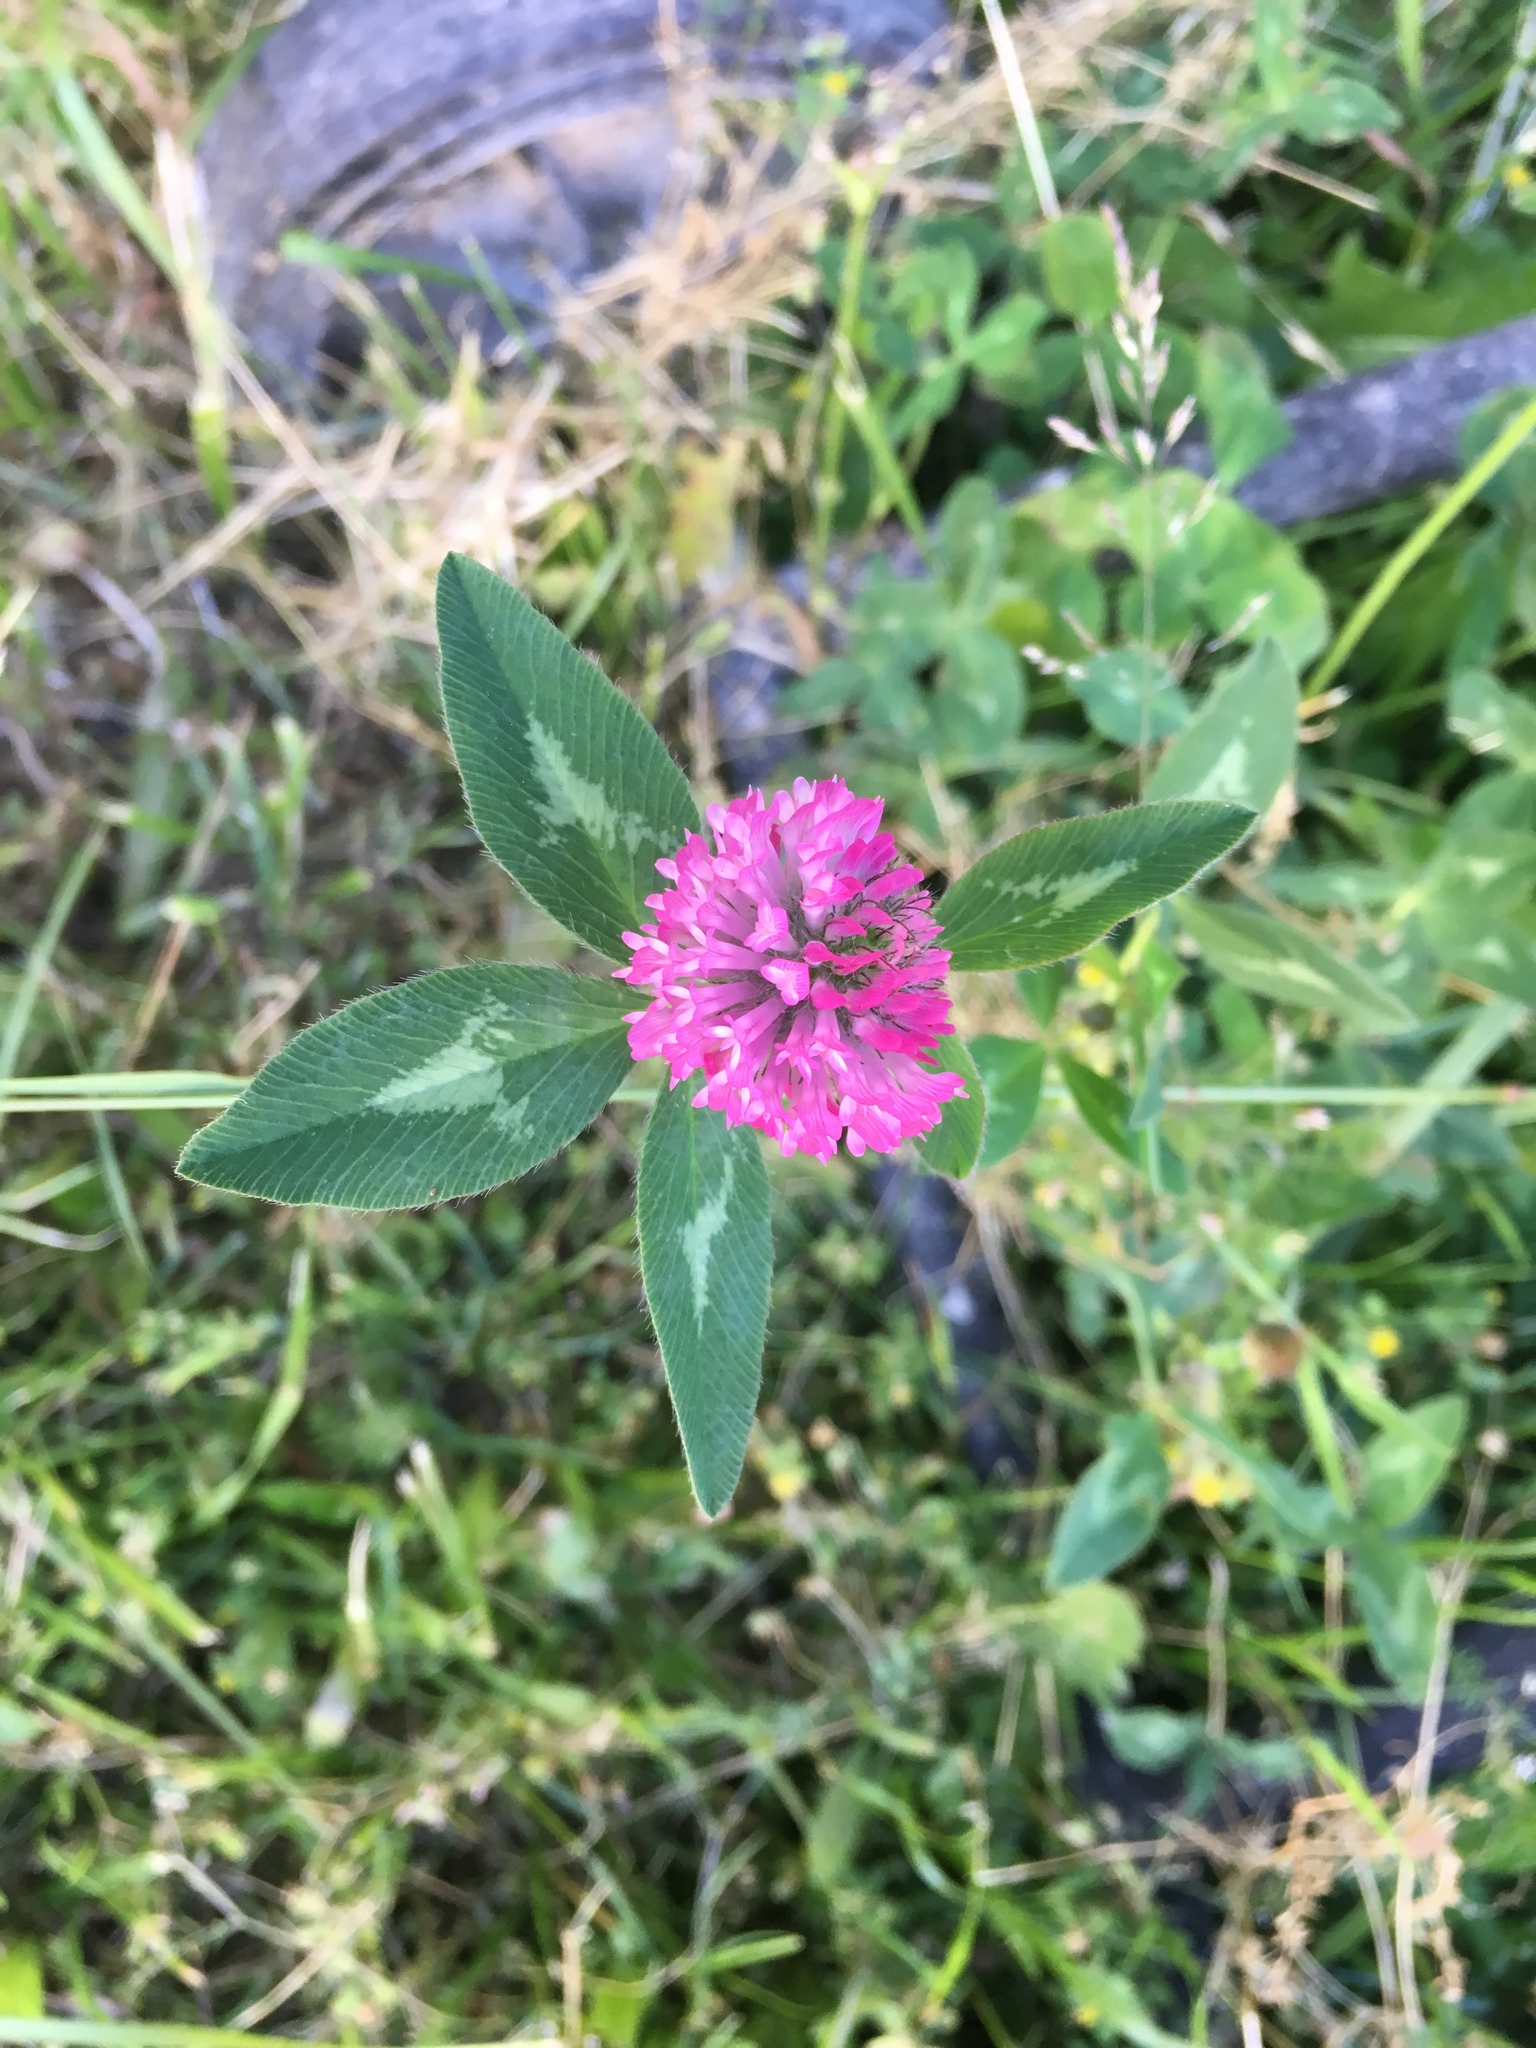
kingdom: Plantae
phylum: Tracheophyta
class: Magnoliopsida
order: Fabales
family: Fabaceae
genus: Trifolium
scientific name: Trifolium pratense
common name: Red clover
